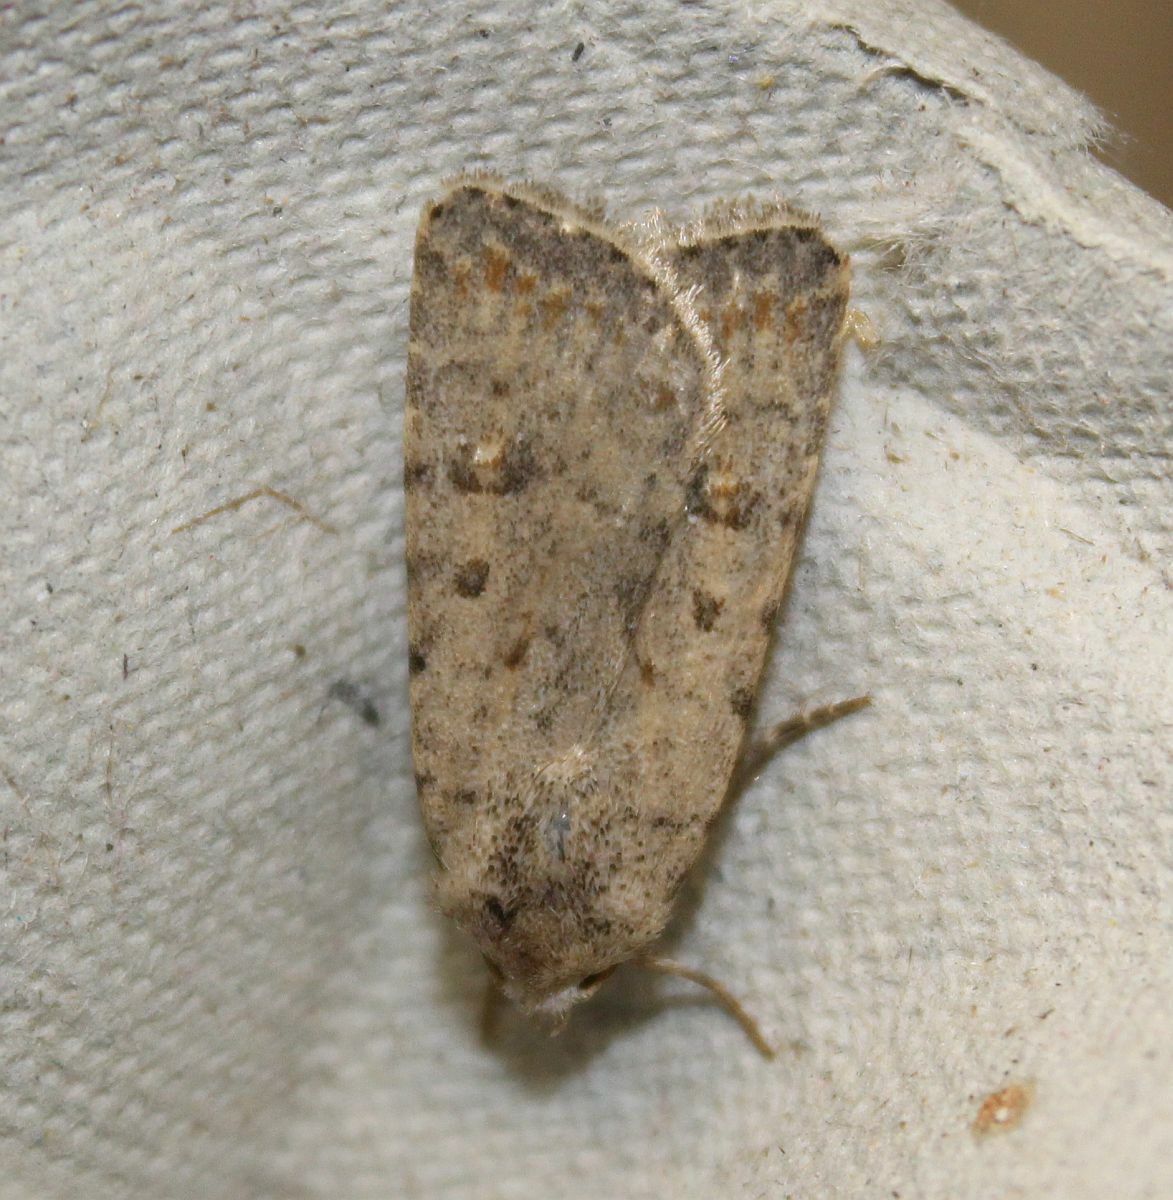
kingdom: Animalia
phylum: Arthropoda
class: Insecta
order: Lepidoptera
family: Noctuidae
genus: Caradrina
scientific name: Caradrina clavipalpis
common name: Pale mottled willow
